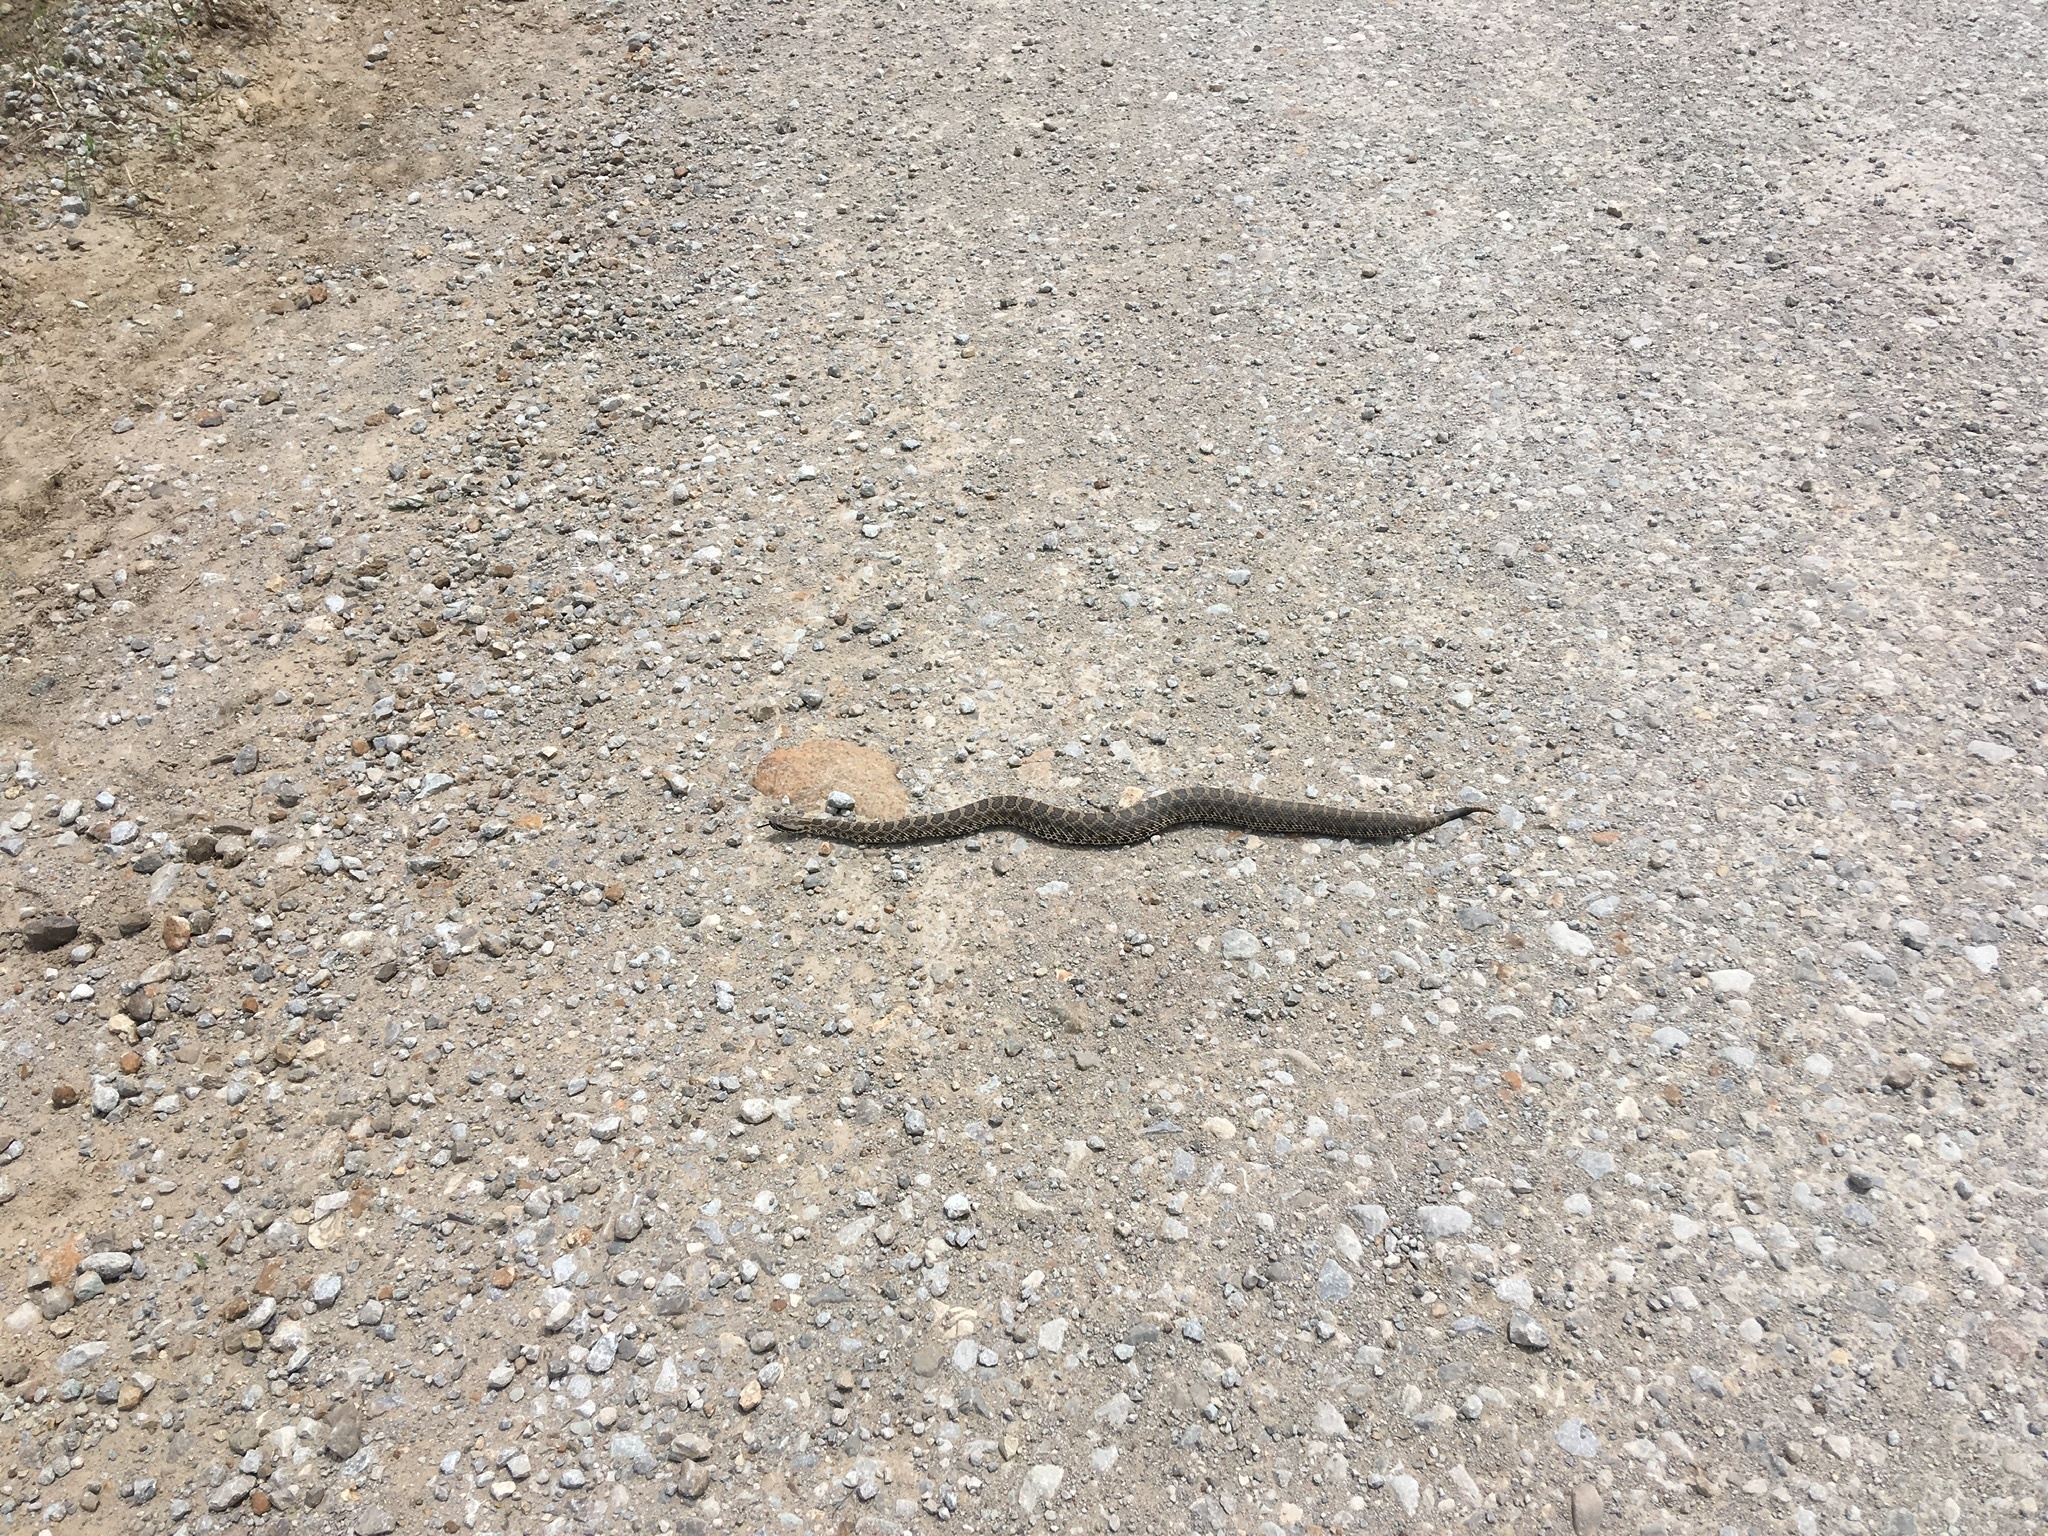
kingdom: Animalia
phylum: Chordata
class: Squamata
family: Viperidae
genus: Sistrurus
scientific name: Sistrurus tergeminus
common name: Desert massasauga [edwardsi]
